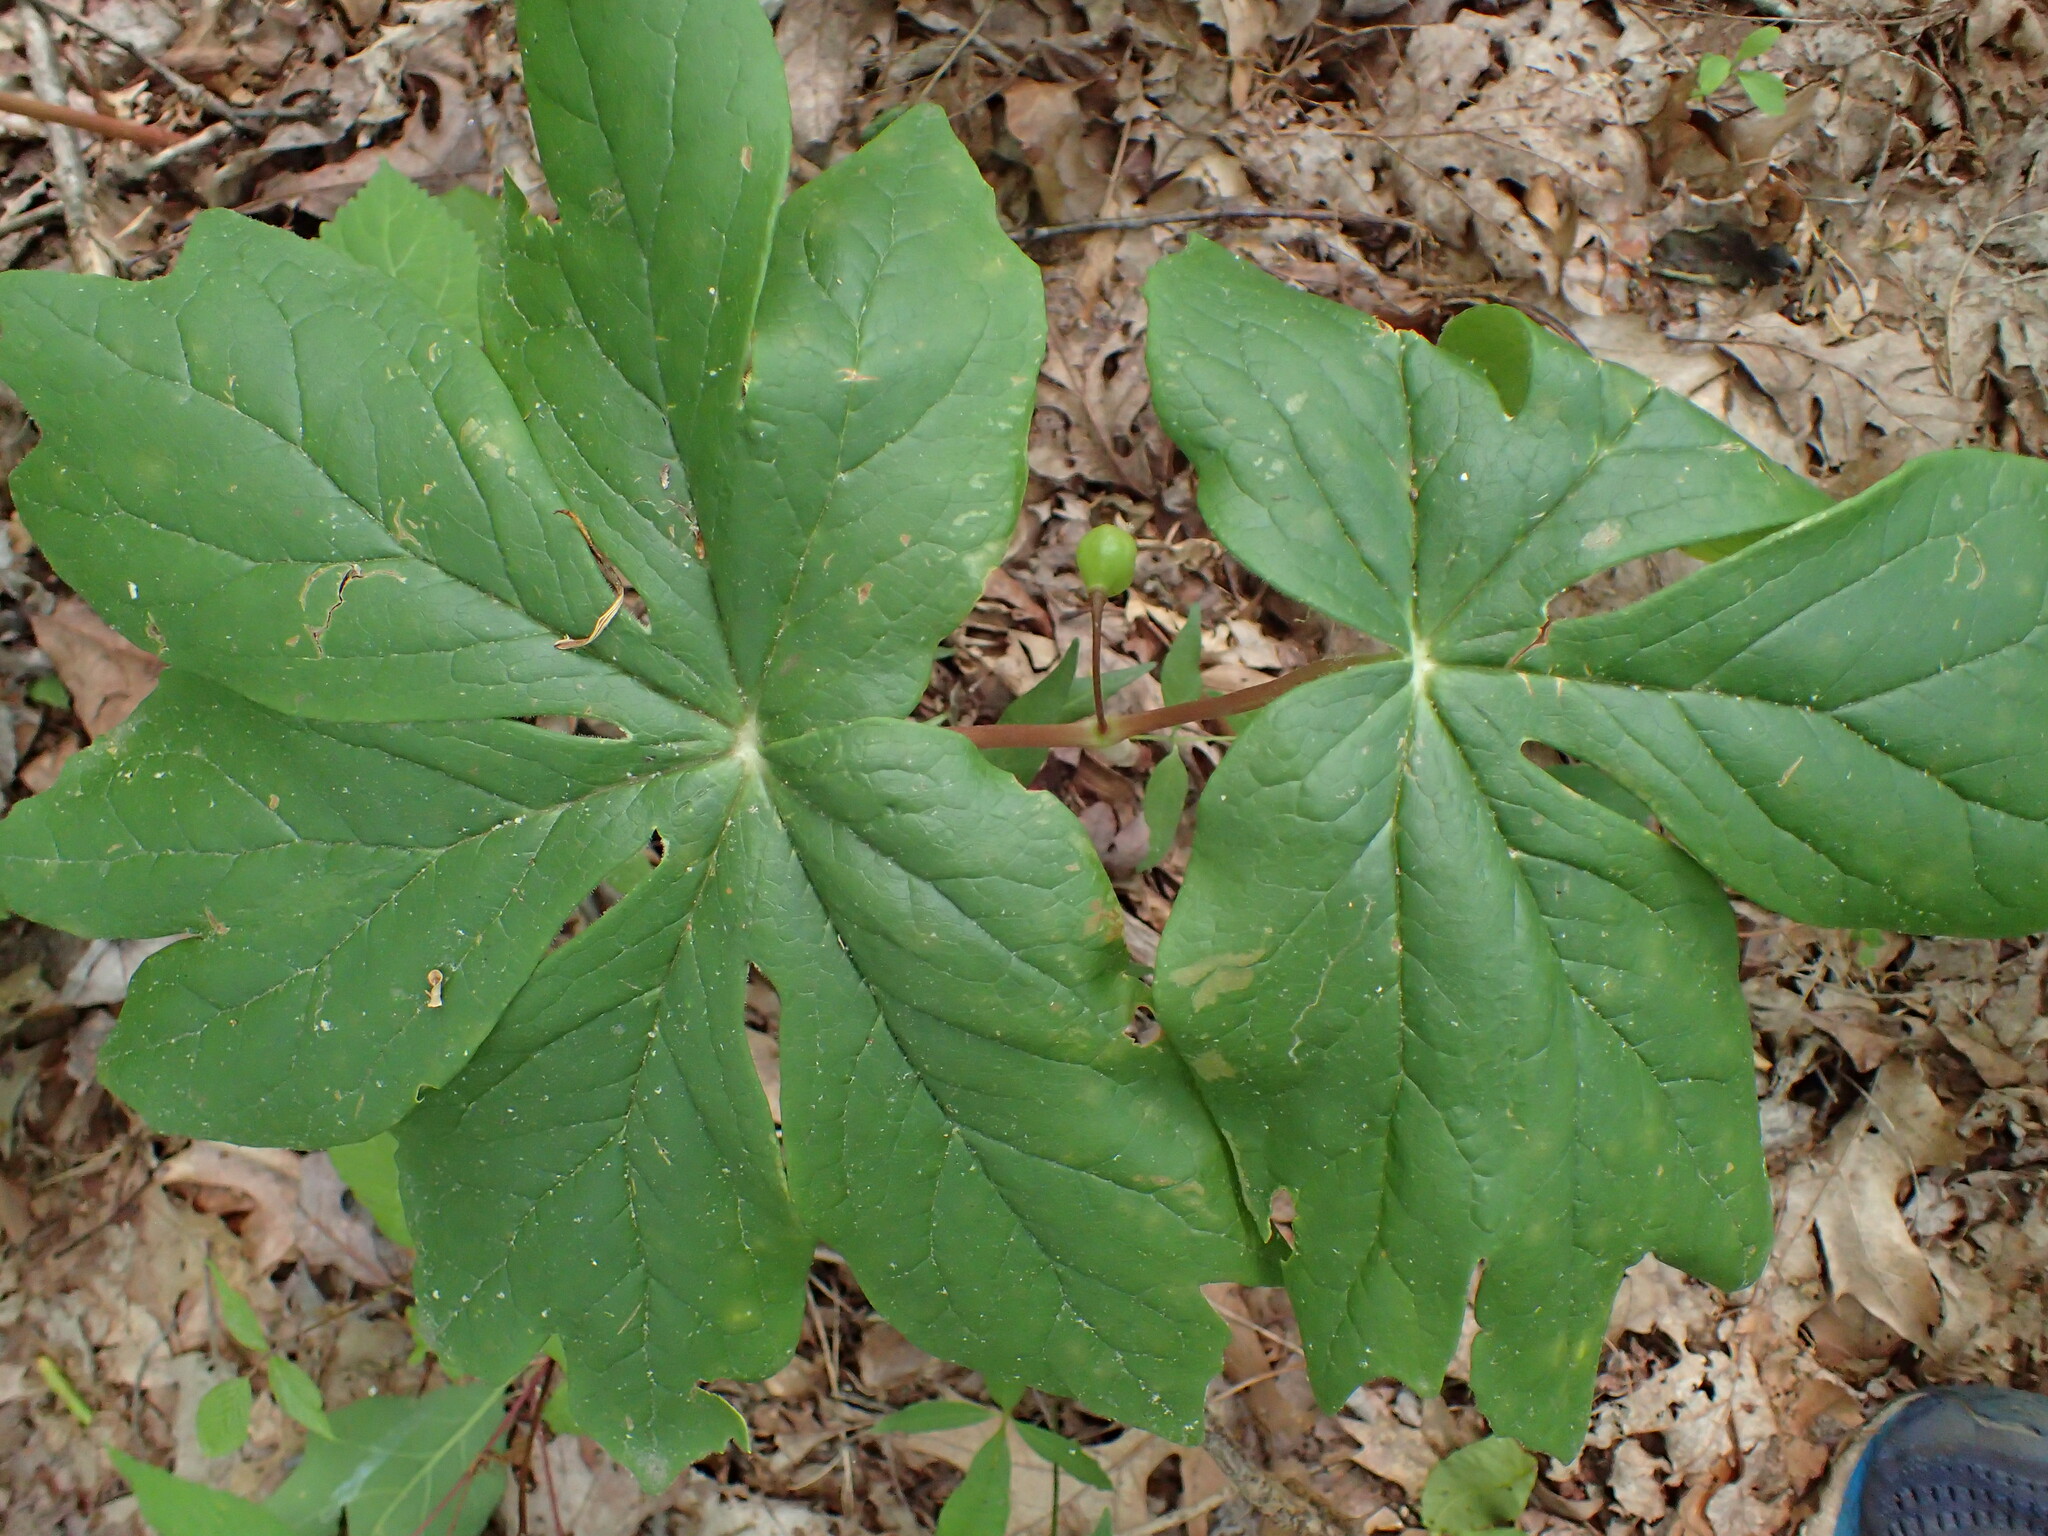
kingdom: Plantae
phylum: Tracheophyta
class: Magnoliopsida
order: Ranunculales
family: Berberidaceae
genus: Podophyllum
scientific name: Podophyllum peltatum
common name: Wild mandrake
